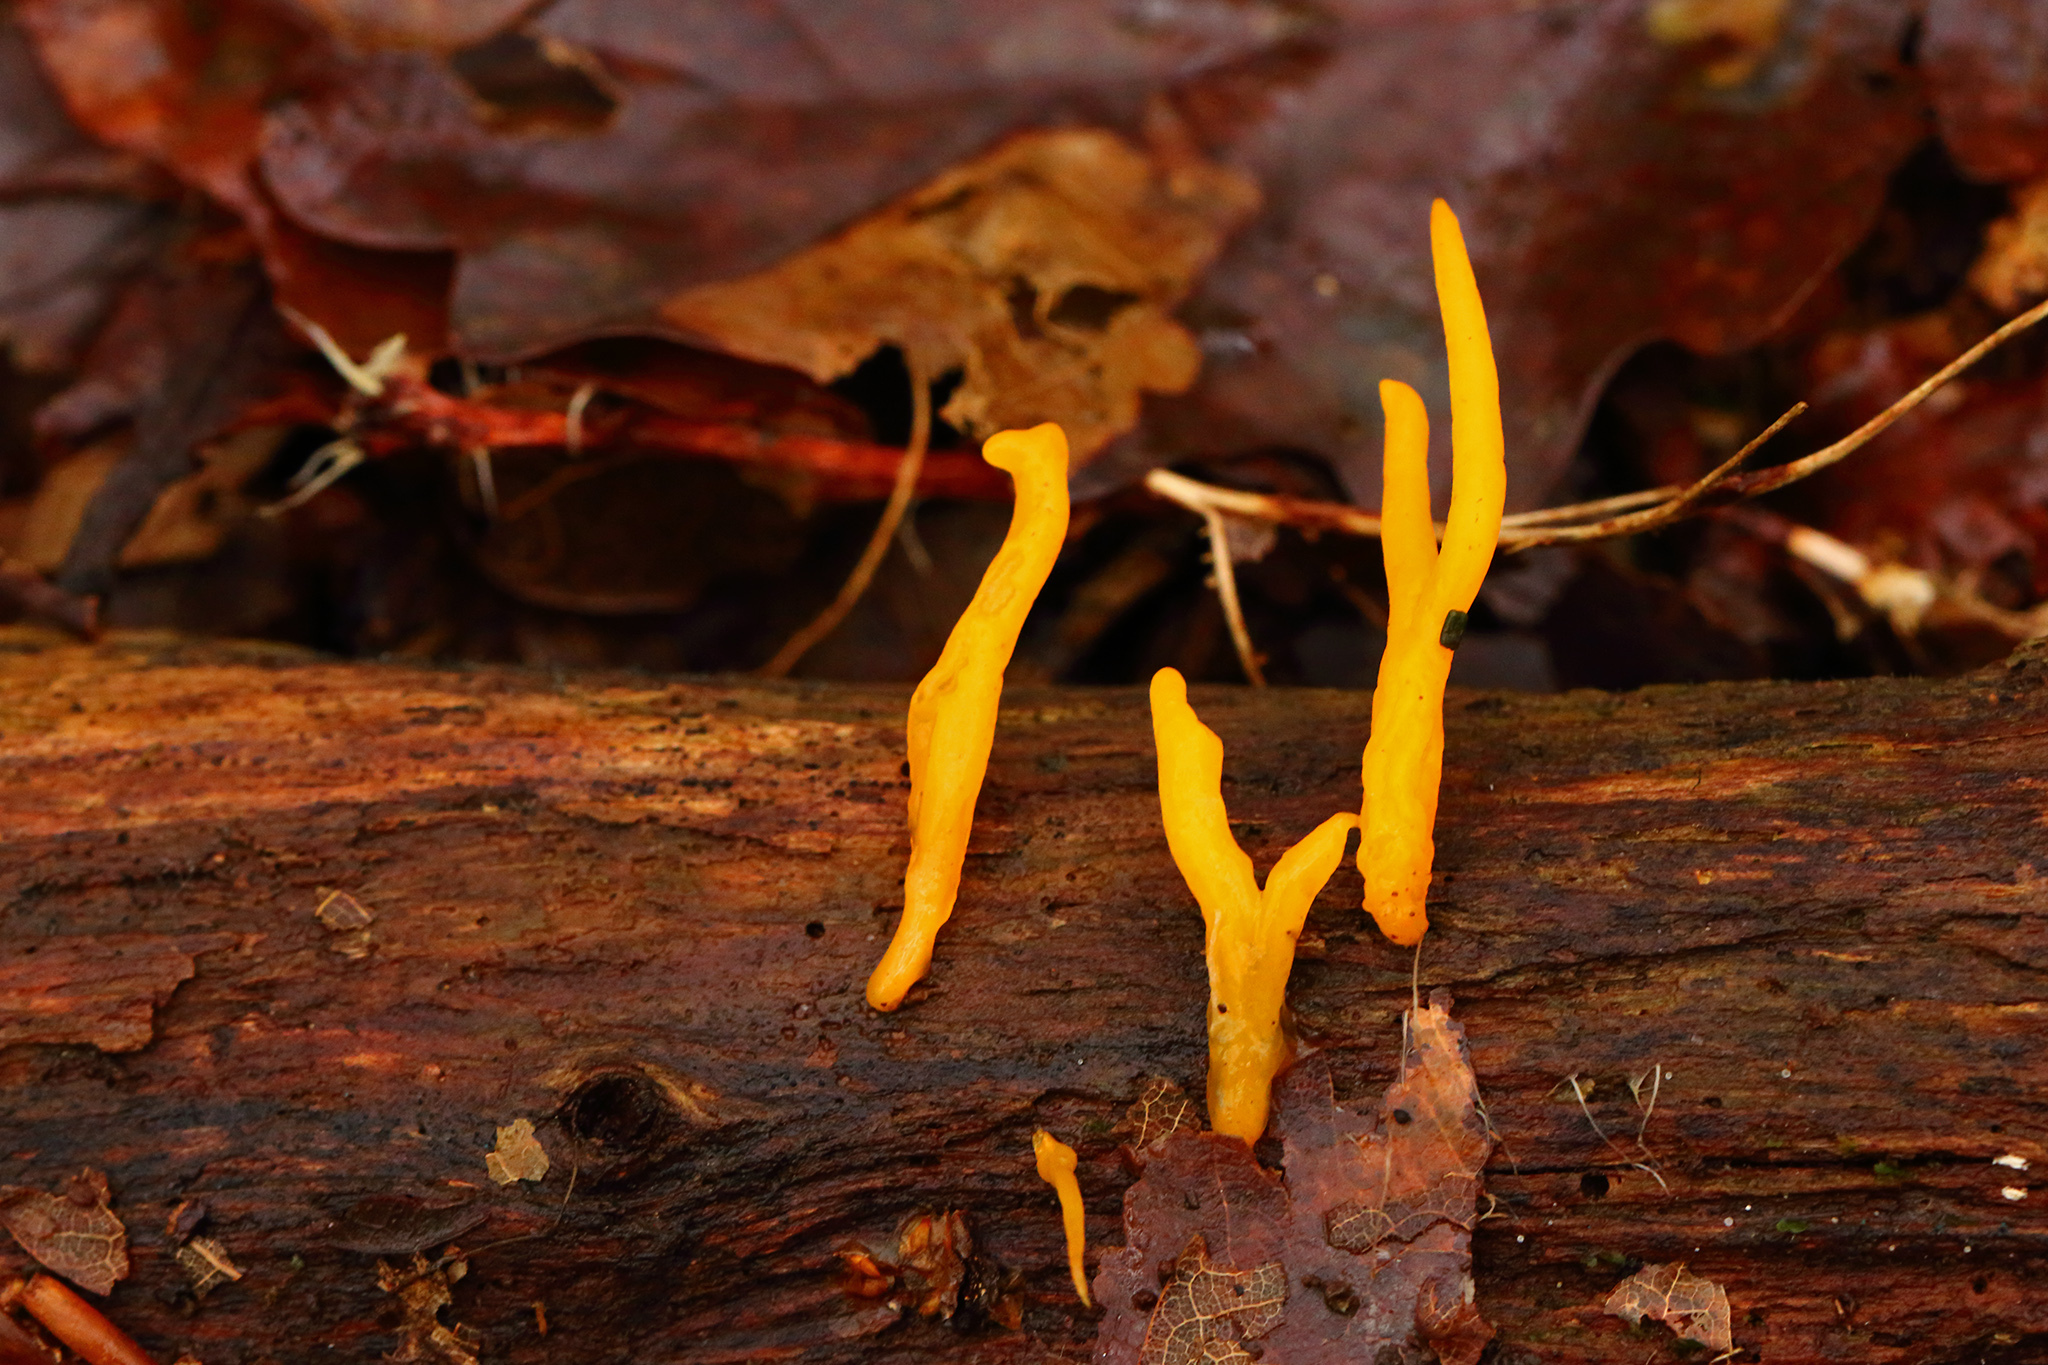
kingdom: Fungi
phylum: Basidiomycota
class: Dacrymycetes
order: Dacrymycetales
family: Dacrymycetaceae
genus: Calocera
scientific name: Calocera viscosa
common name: Yellow stagshorn
